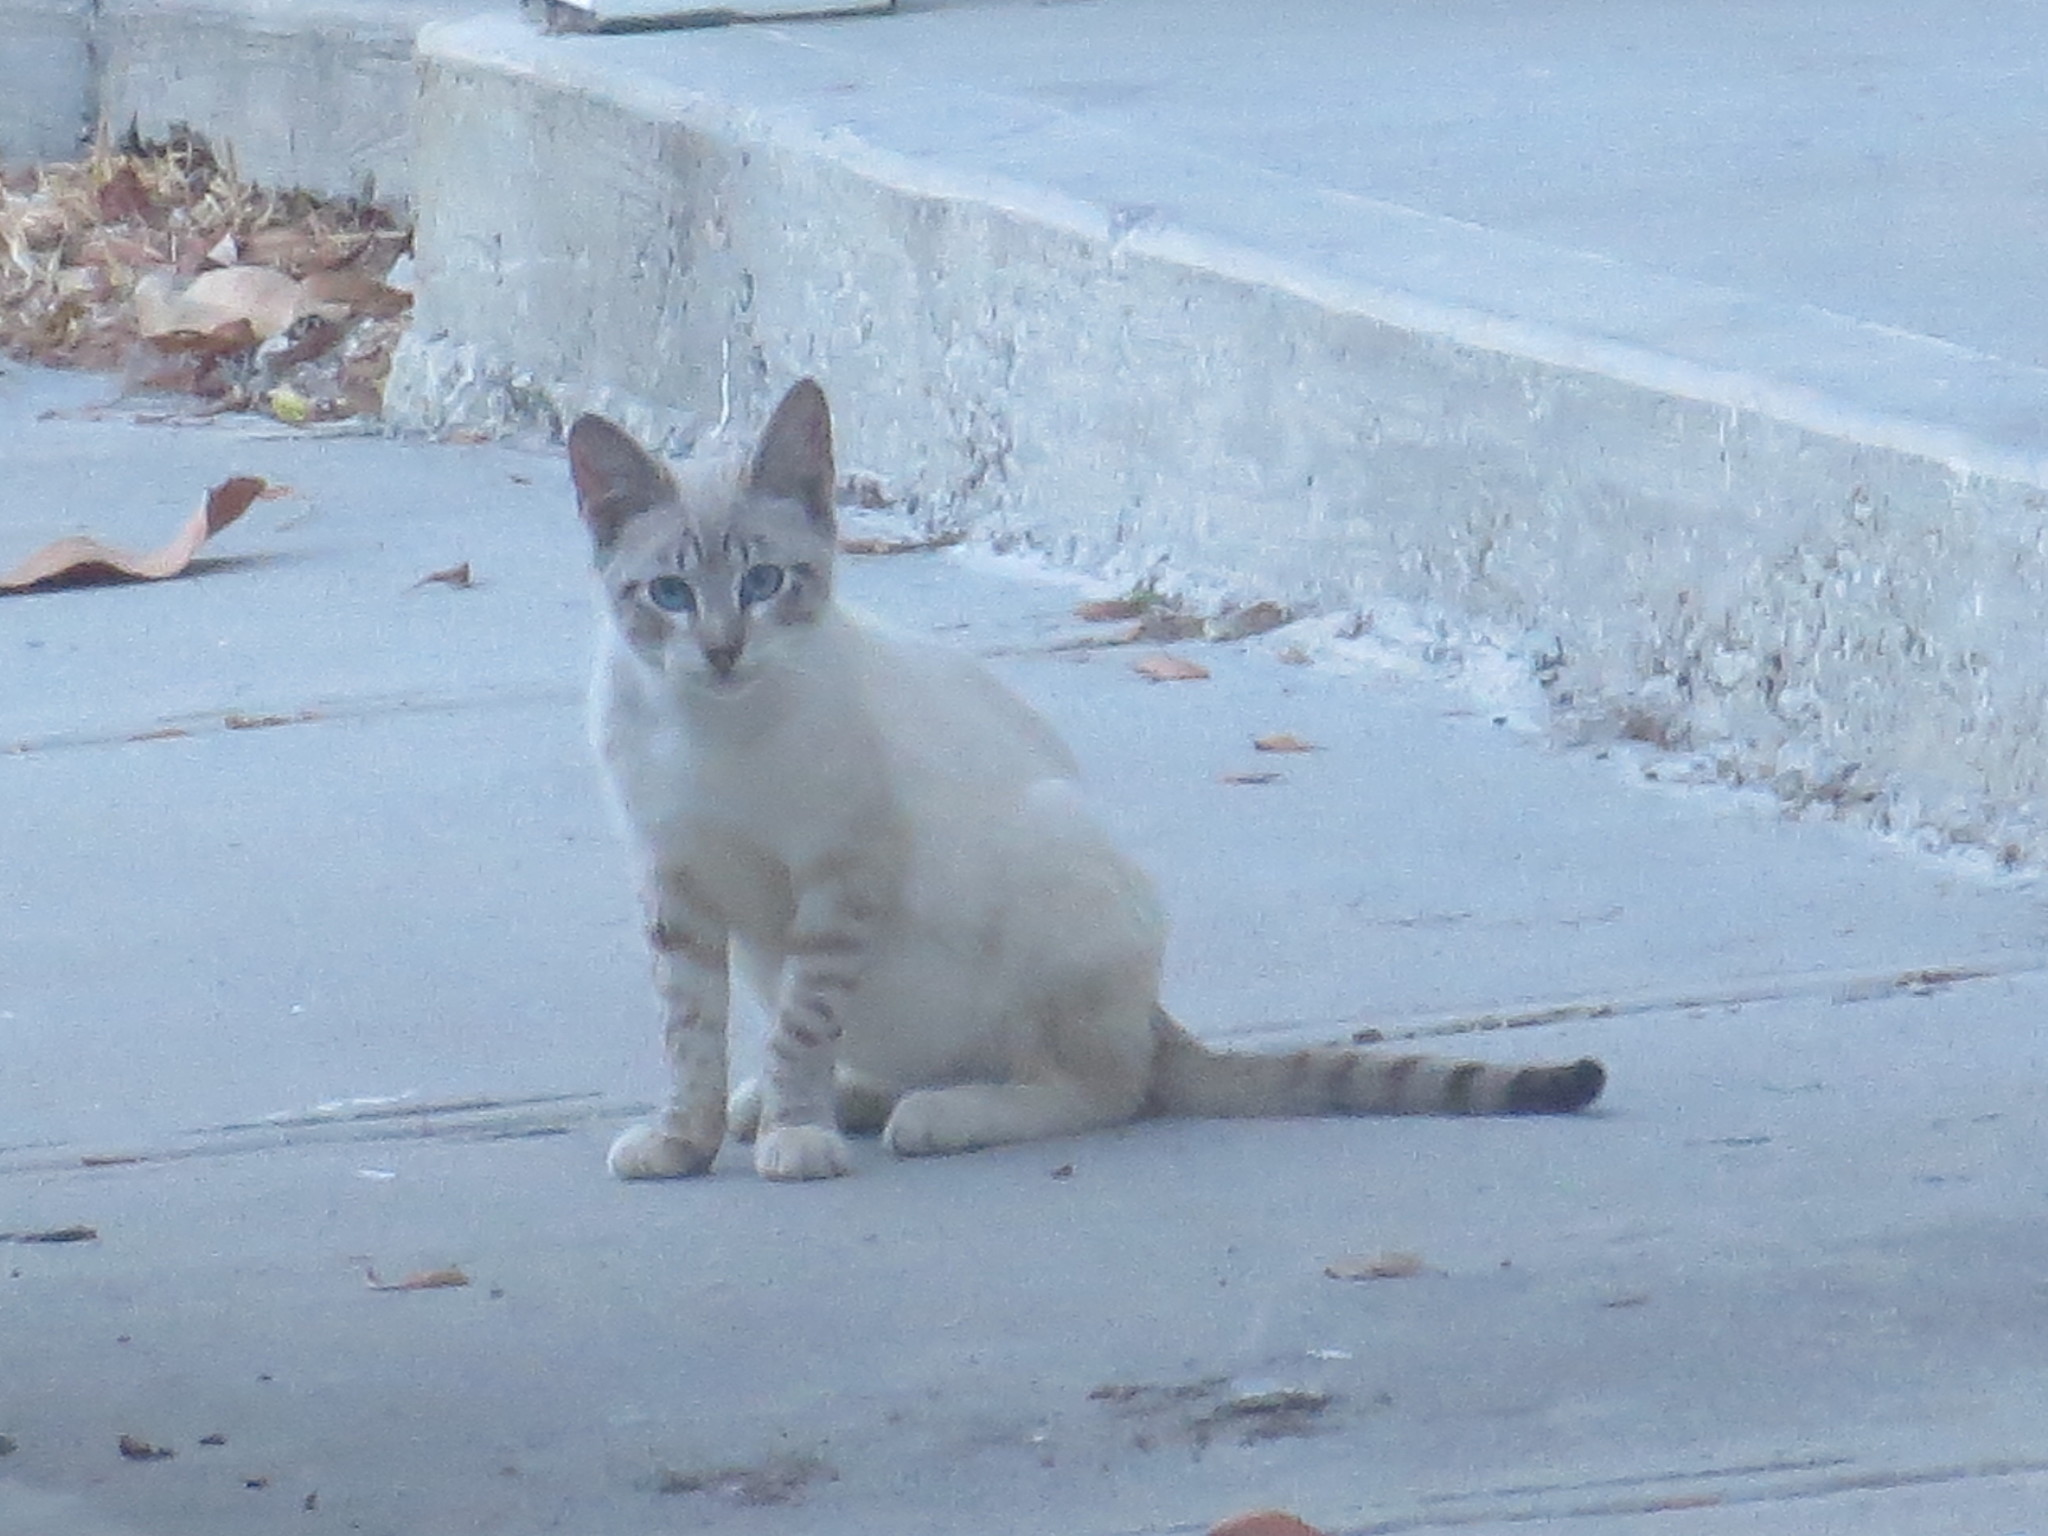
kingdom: Animalia
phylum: Chordata
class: Mammalia
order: Carnivora
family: Felidae
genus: Felis
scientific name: Felis catus
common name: Domestic cat
